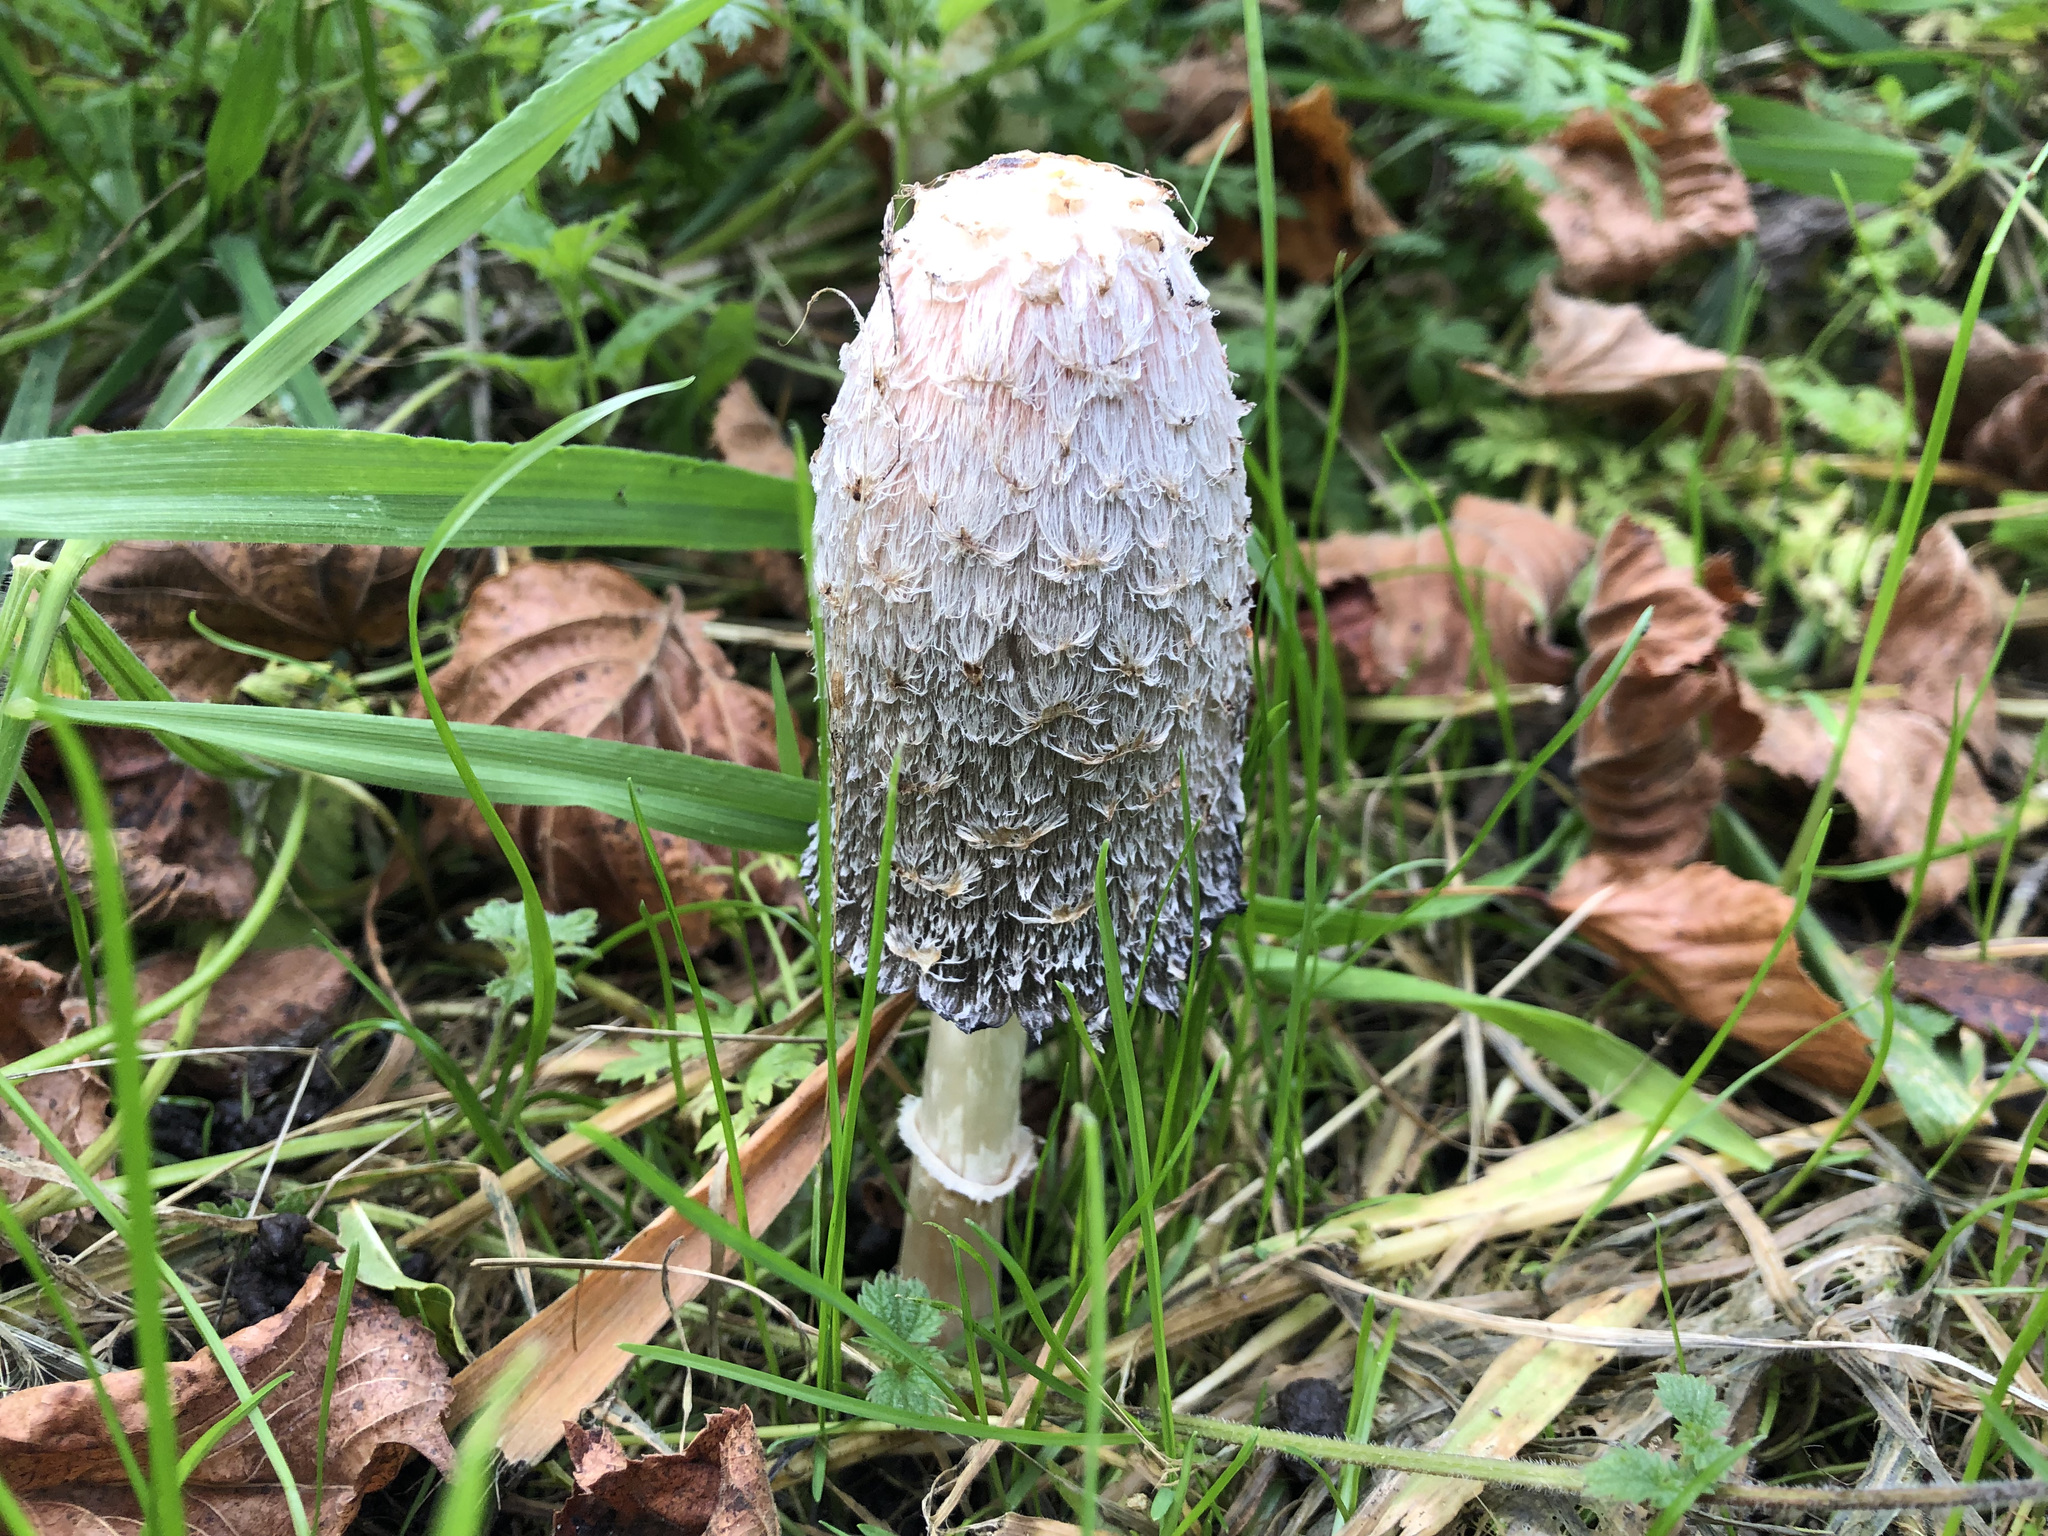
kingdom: Fungi
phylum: Basidiomycota
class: Agaricomycetes
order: Agaricales
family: Agaricaceae
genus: Coprinus
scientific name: Coprinus comatus
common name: Lawyer's wig
